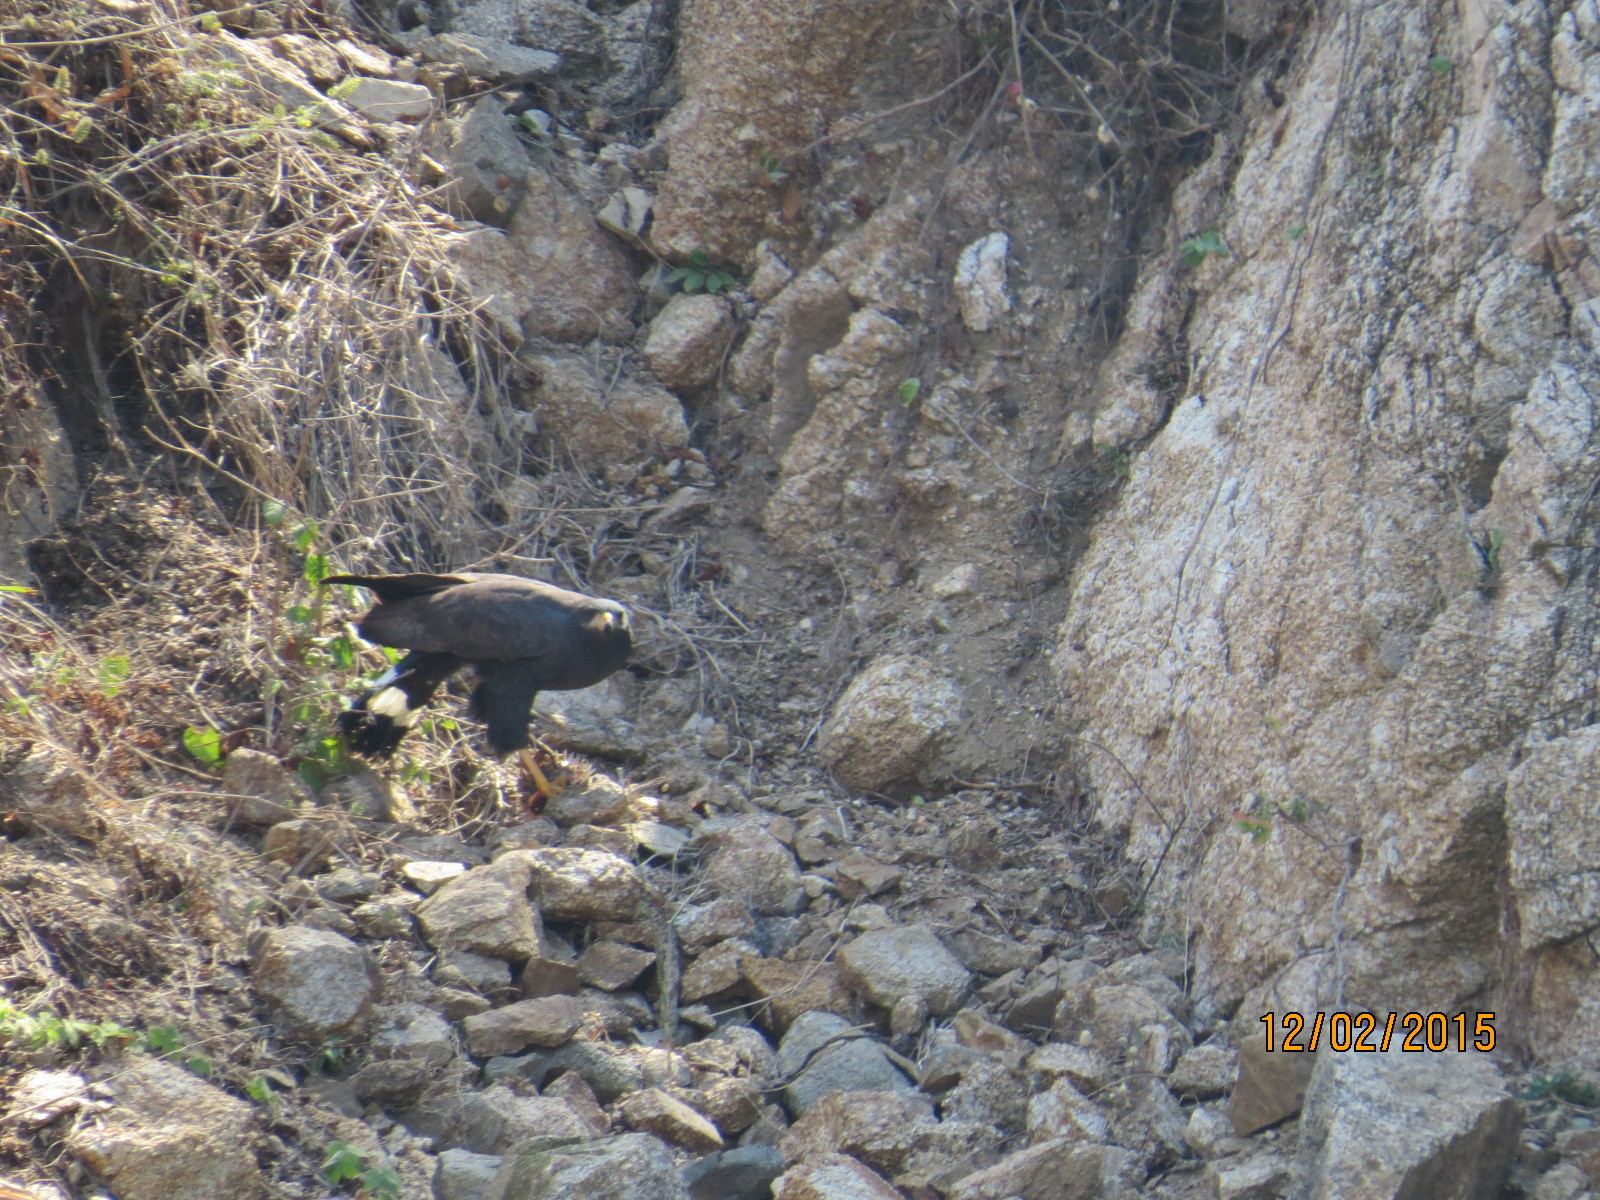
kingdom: Animalia
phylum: Chordata
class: Aves
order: Accipitriformes
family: Accipitridae
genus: Buteogallus
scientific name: Buteogallus anthracinus
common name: Common black hawk
